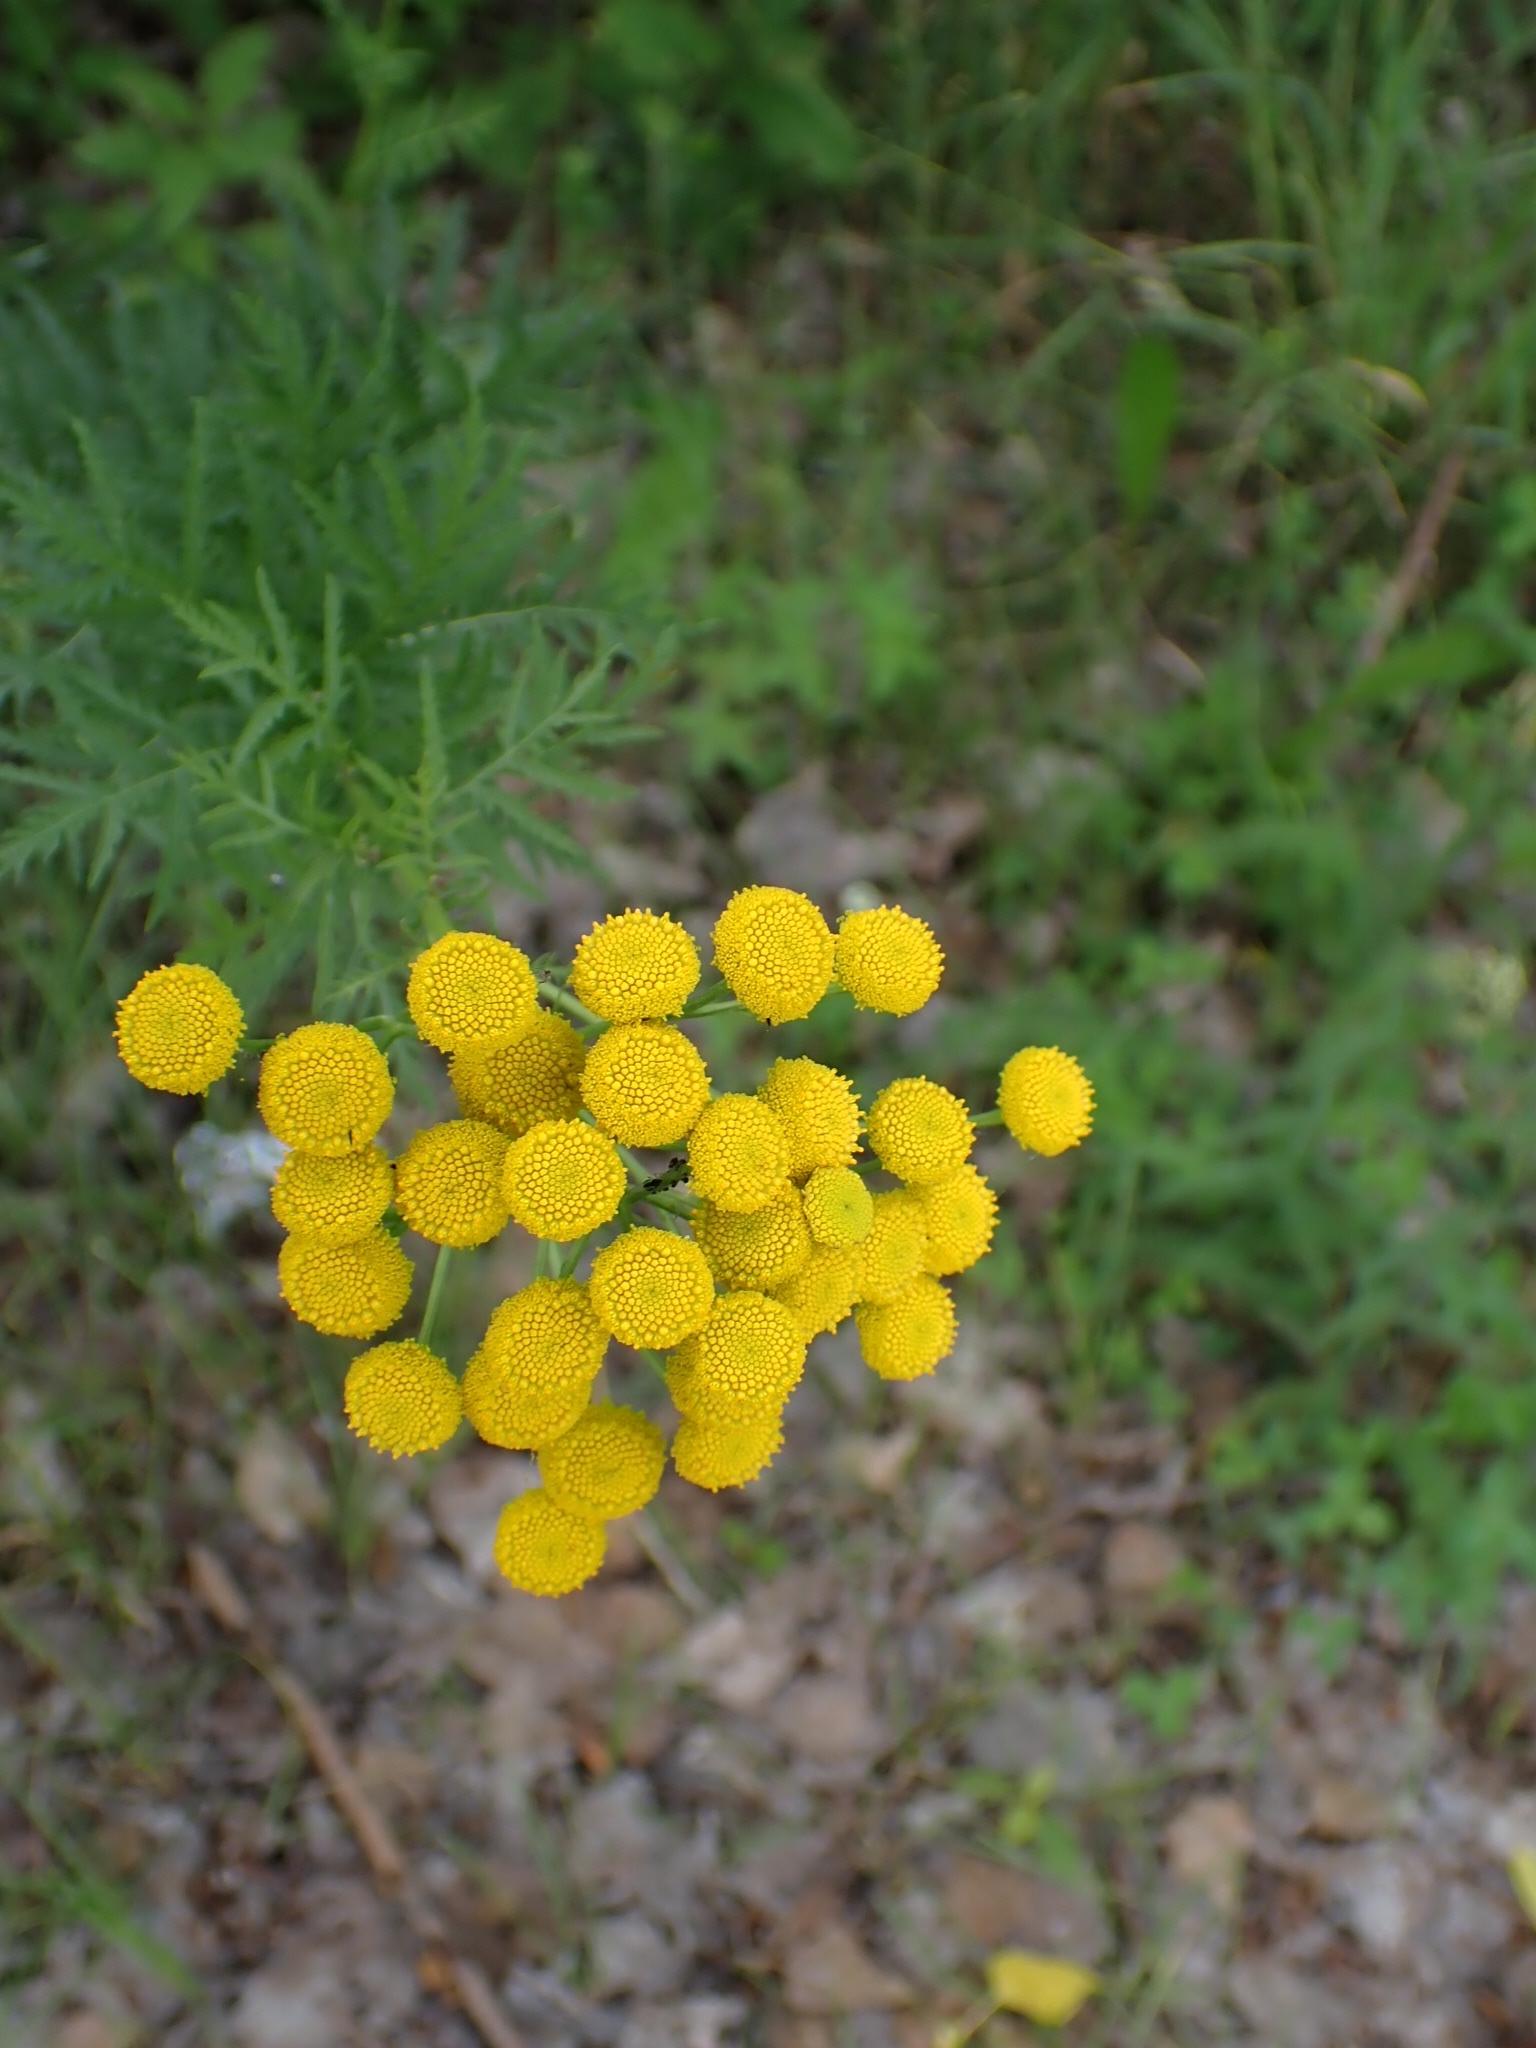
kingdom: Plantae
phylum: Tracheophyta
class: Magnoliopsida
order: Asterales
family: Asteraceae
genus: Tanacetum
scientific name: Tanacetum vulgare
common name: Common tansy
